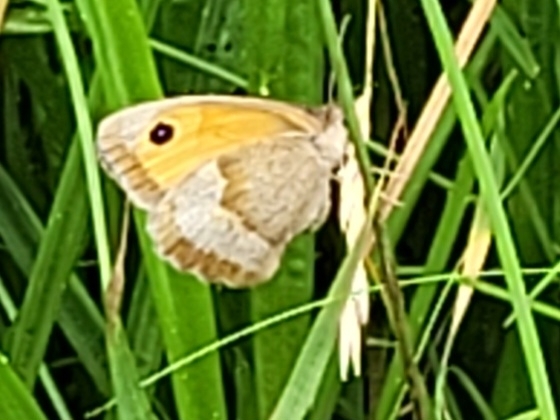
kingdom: Animalia
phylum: Arthropoda
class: Insecta
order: Lepidoptera
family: Nymphalidae
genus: Maniola
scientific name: Maniola jurtina
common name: Meadow brown
